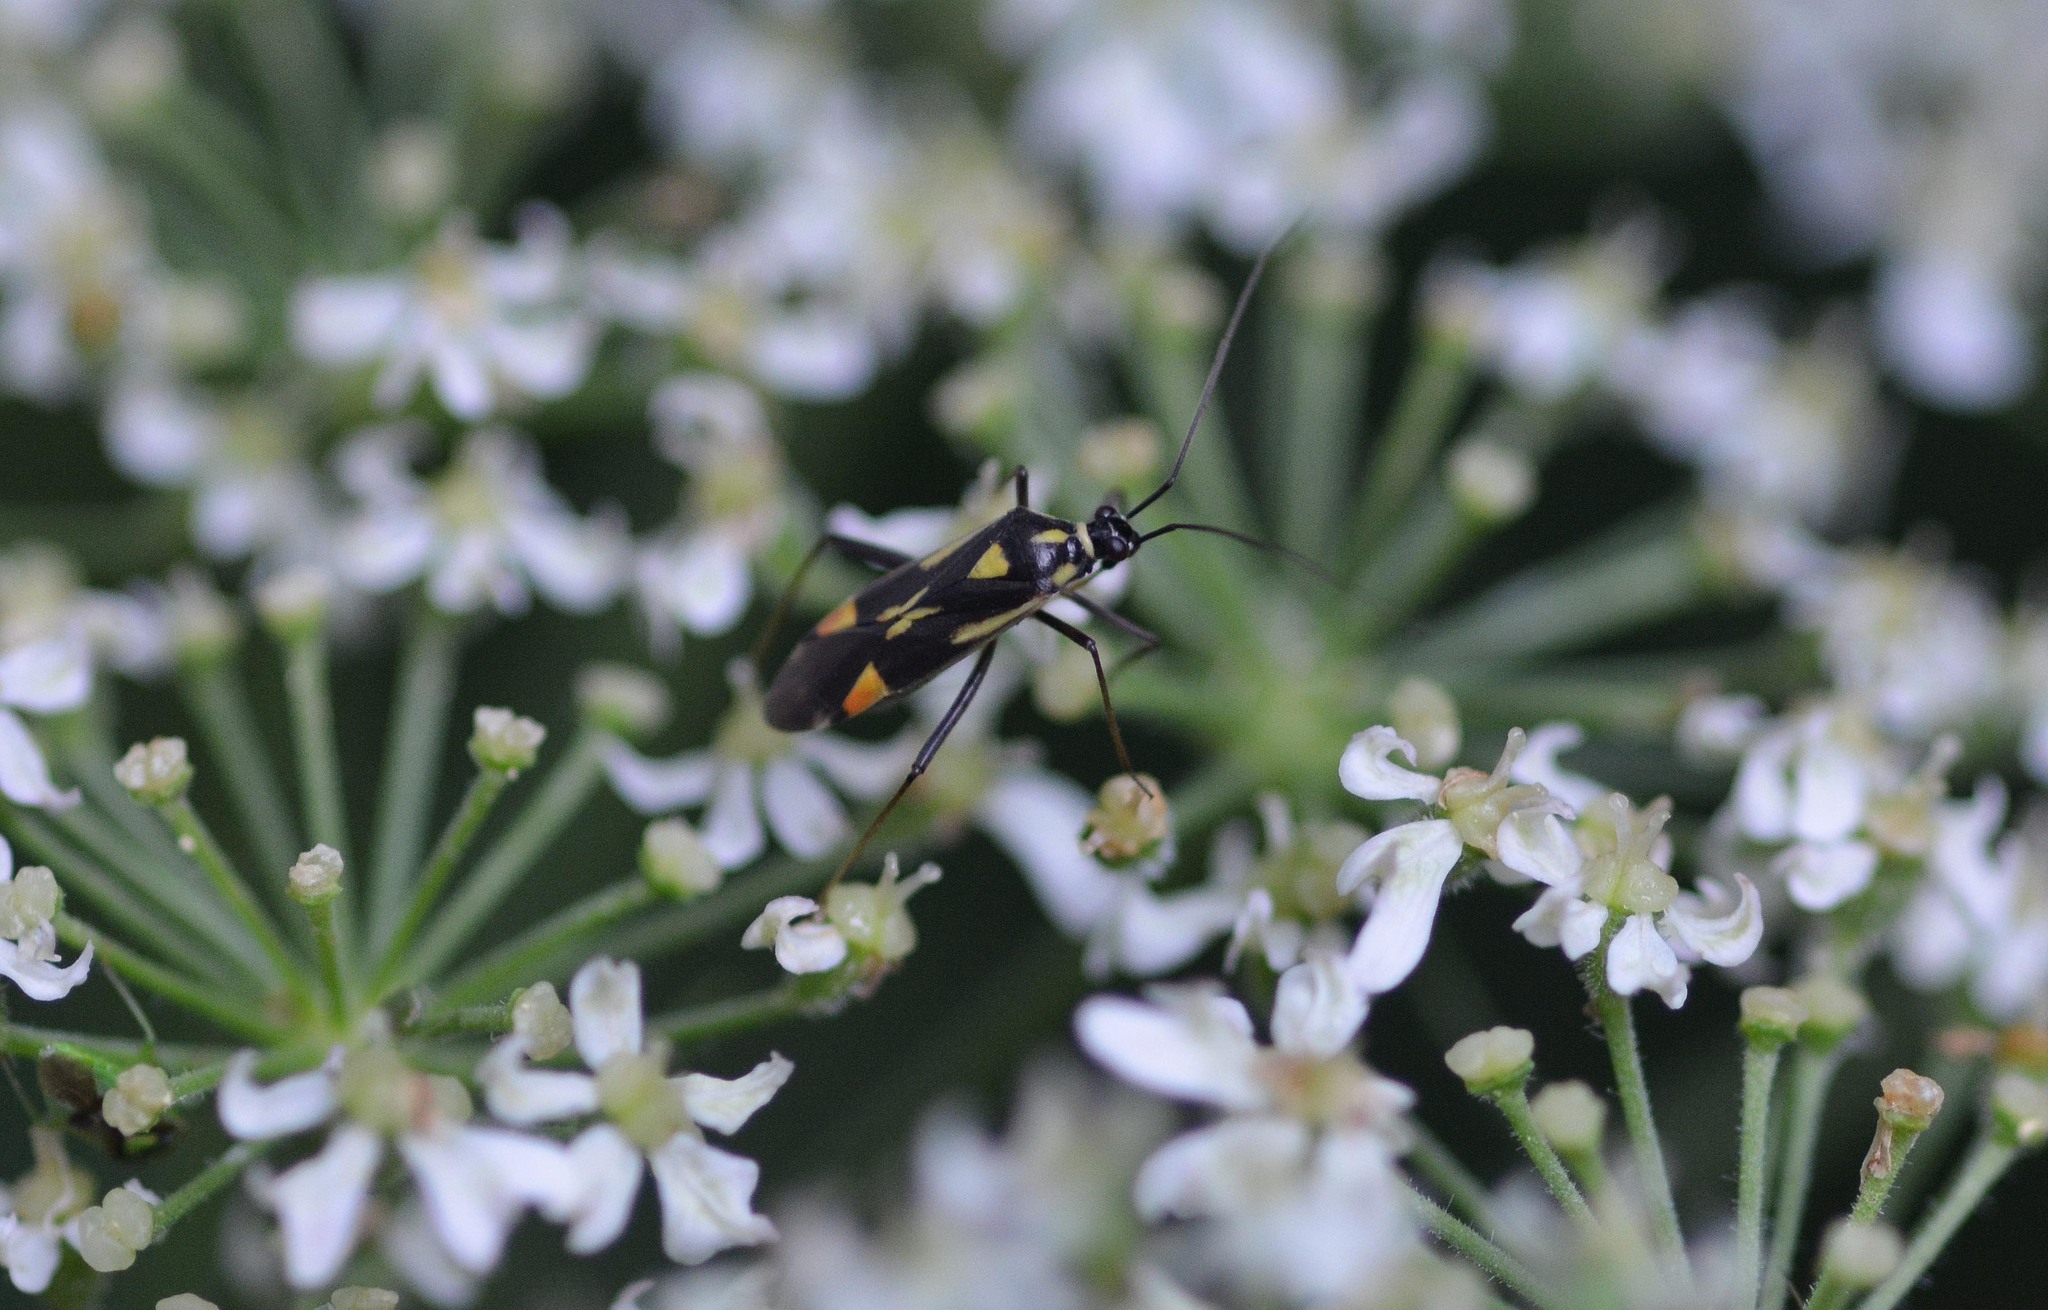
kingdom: Animalia
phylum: Arthropoda
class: Insecta
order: Hemiptera
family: Miridae
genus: Grypocoris
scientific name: Grypocoris stysi
